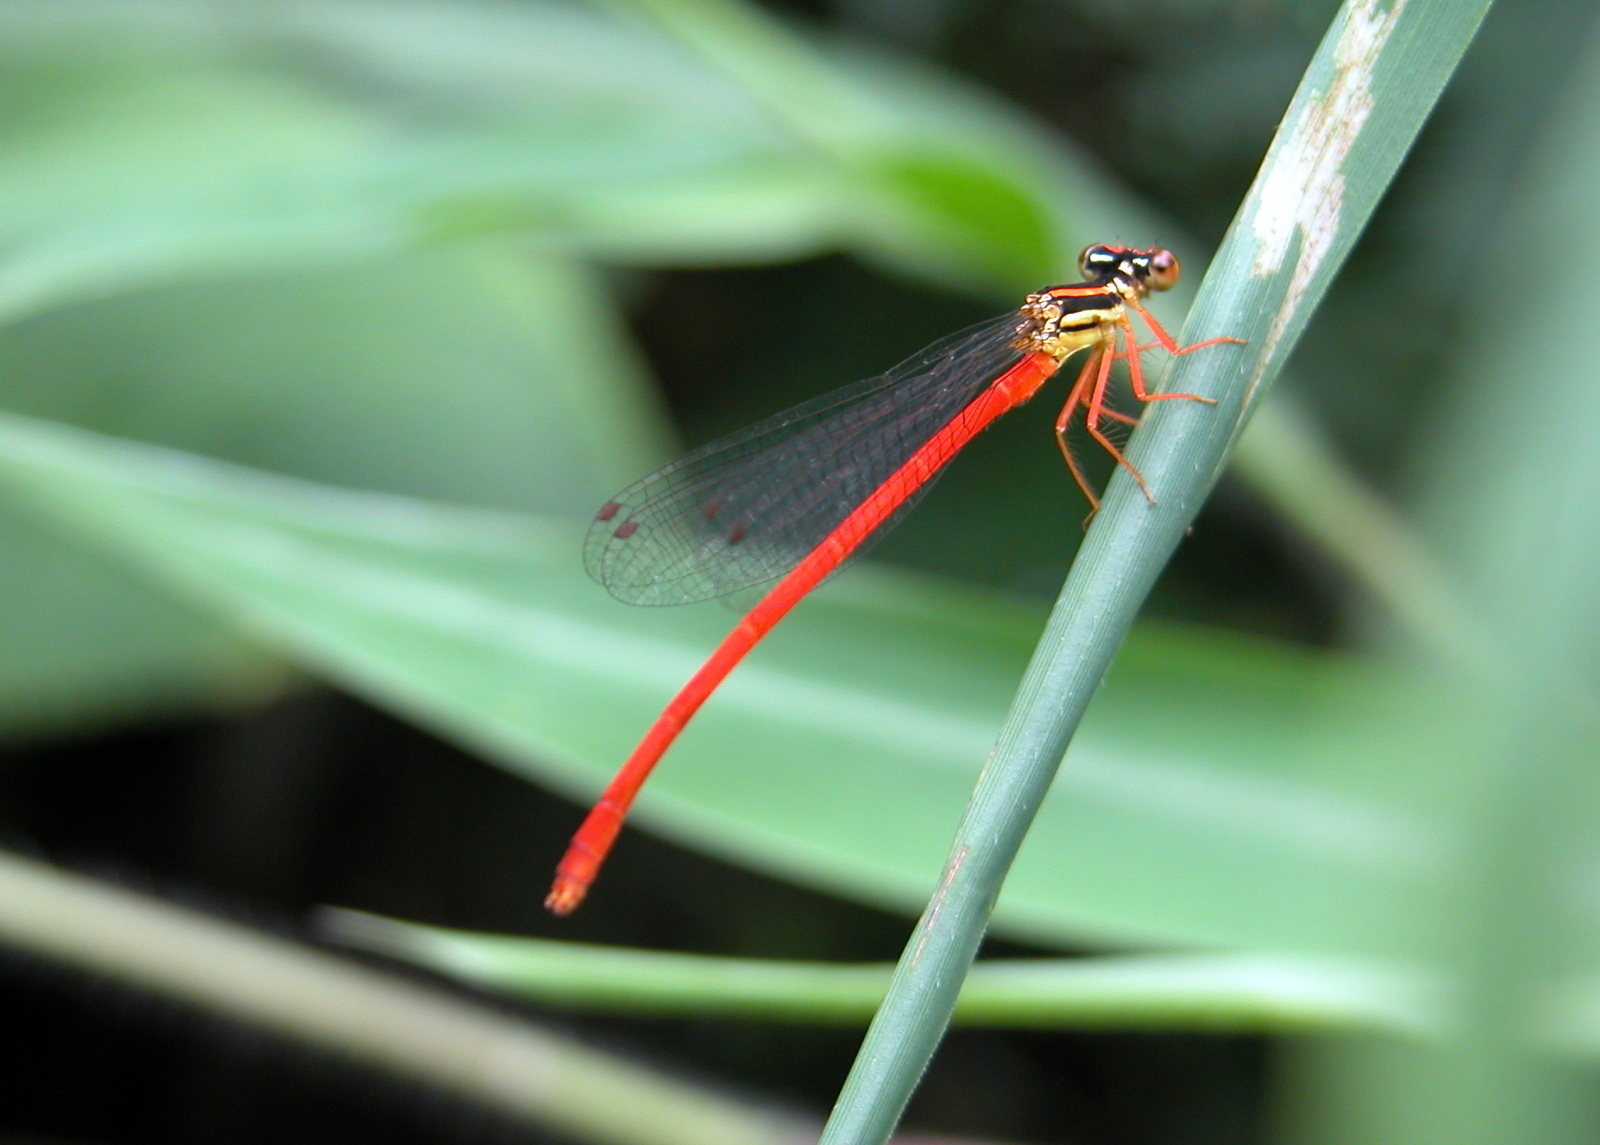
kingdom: Animalia
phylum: Arthropoda
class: Insecta
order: Odonata
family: Platycnemididae
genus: Calicnemia
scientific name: Calicnemia eximia
